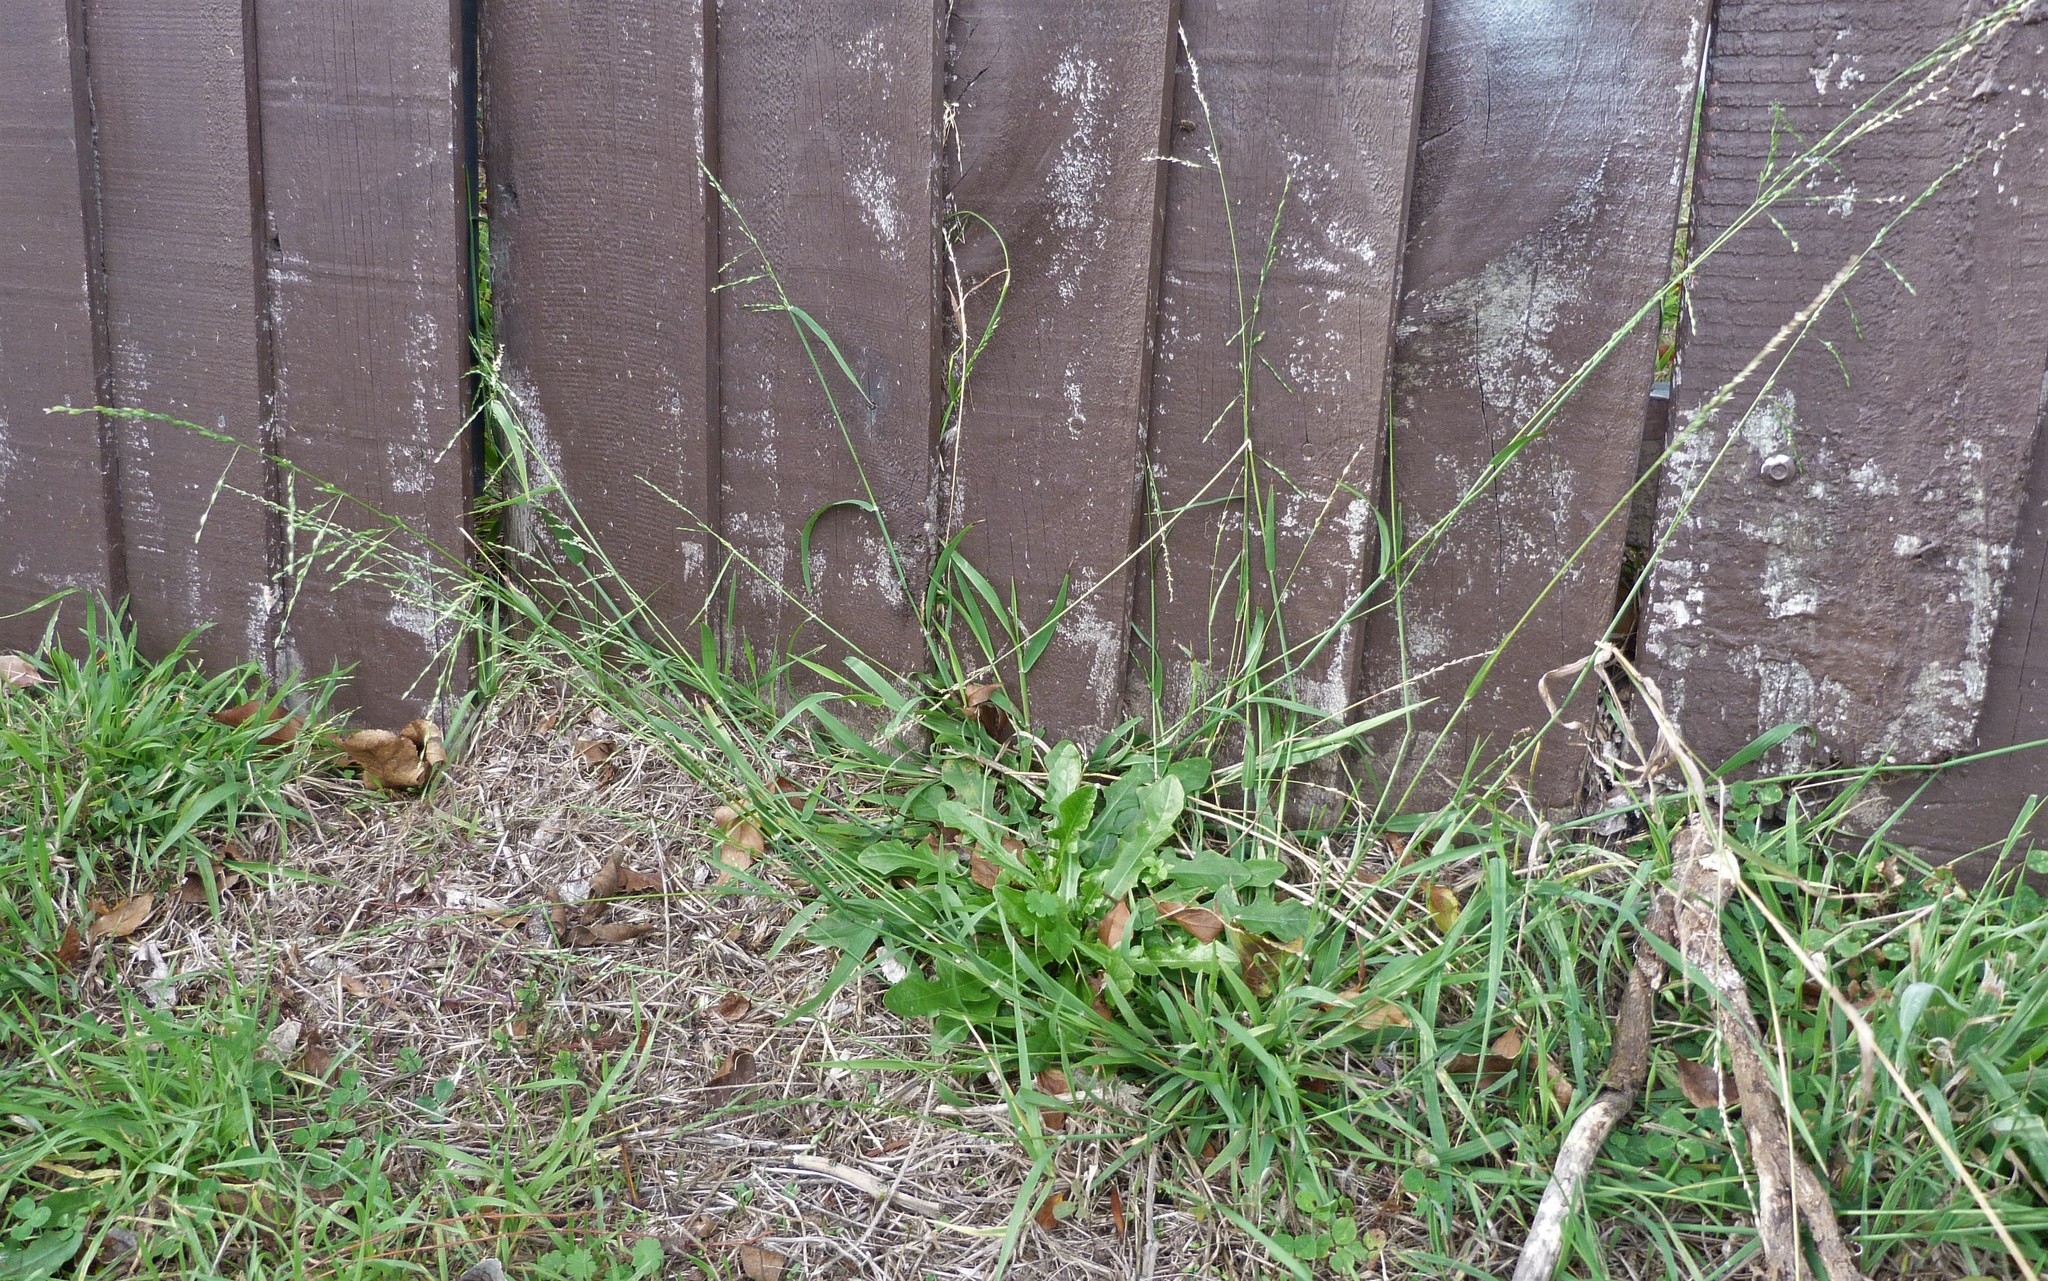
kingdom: Plantae
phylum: Tracheophyta
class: Liliopsida
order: Poales
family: Poaceae
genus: Ehrharta
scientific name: Ehrharta erecta
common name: Panic veldtgrass
